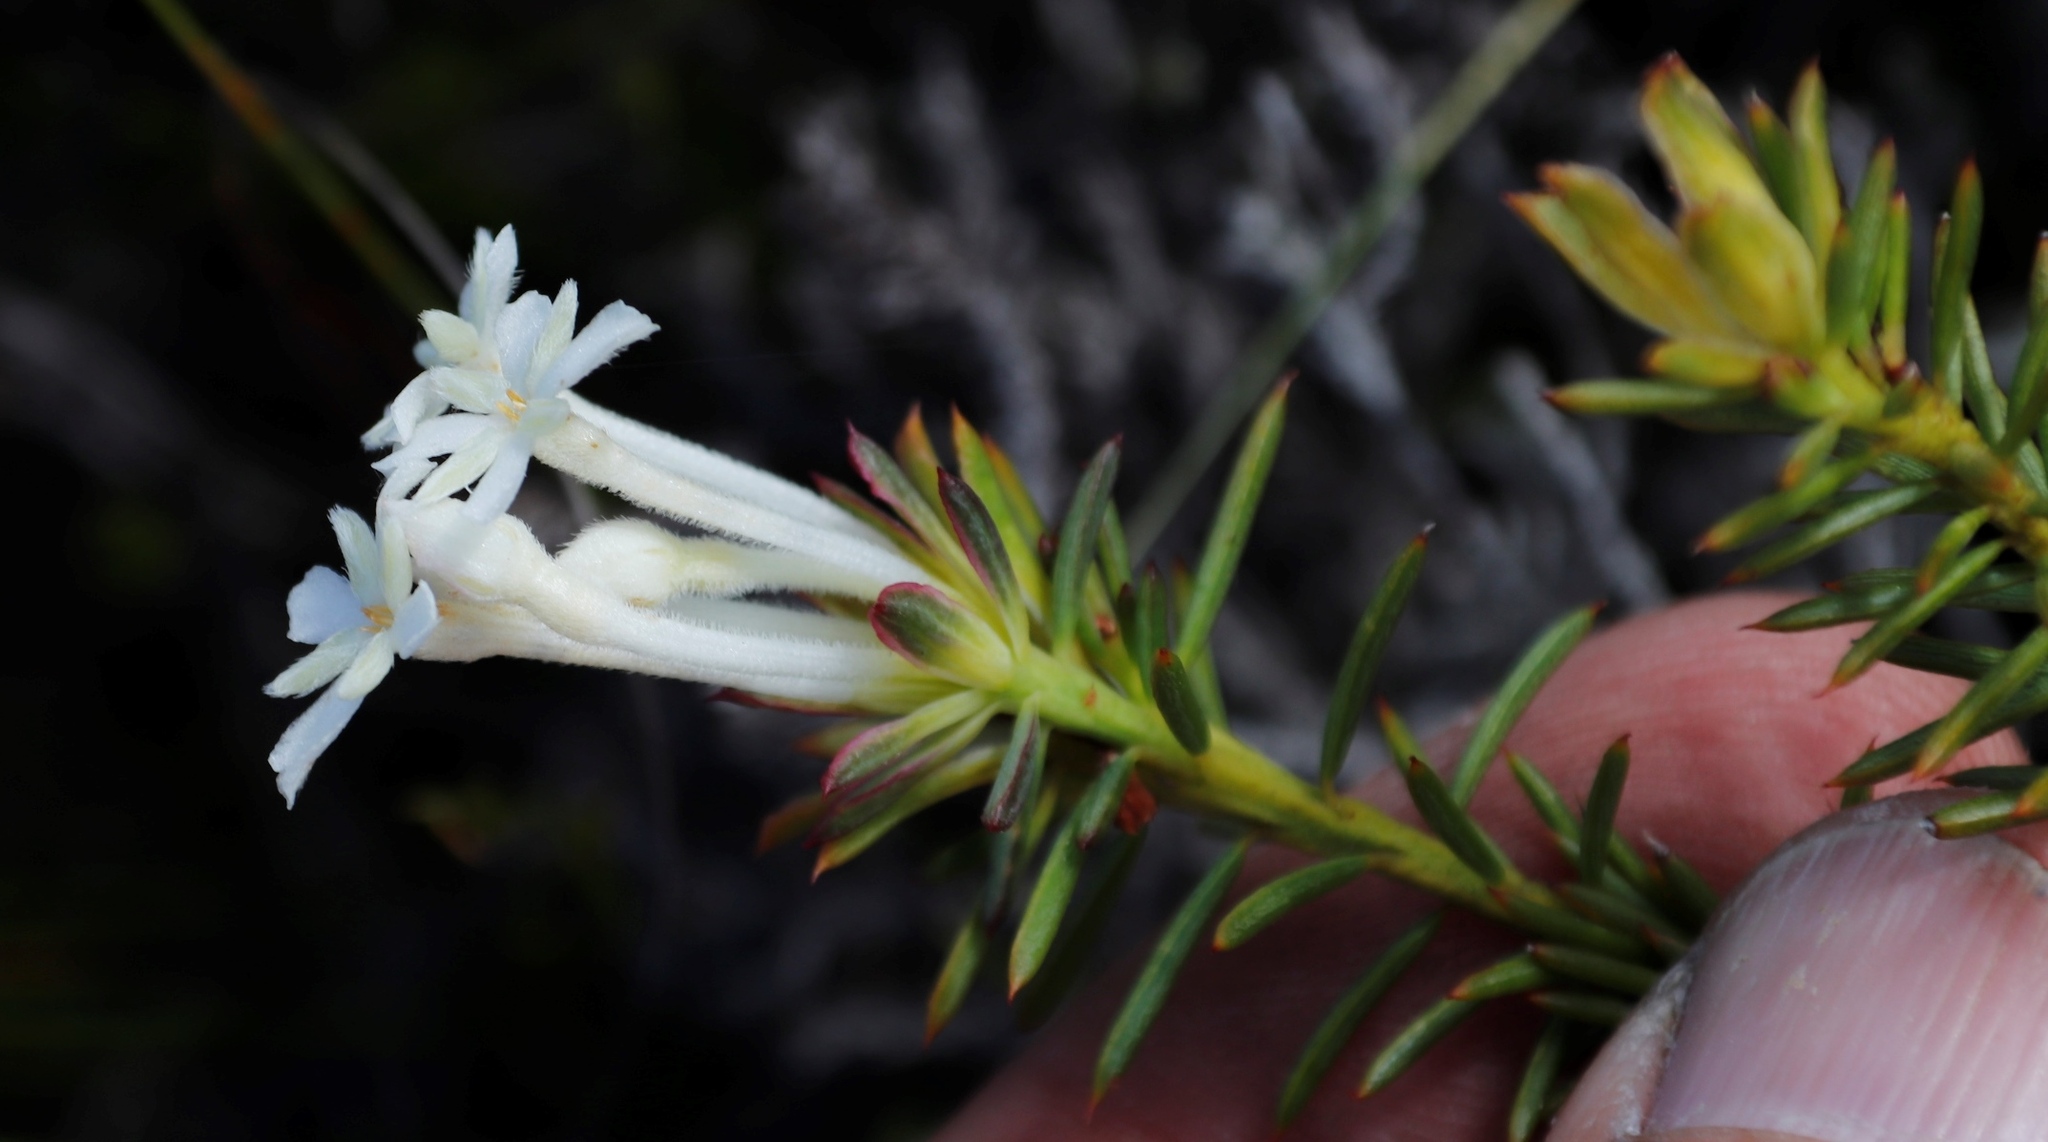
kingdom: Plantae
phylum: Tracheophyta
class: Magnoliopsida
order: Malvales
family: Thymelaeaceae
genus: Gnidia
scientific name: Gnidia pinifolia
